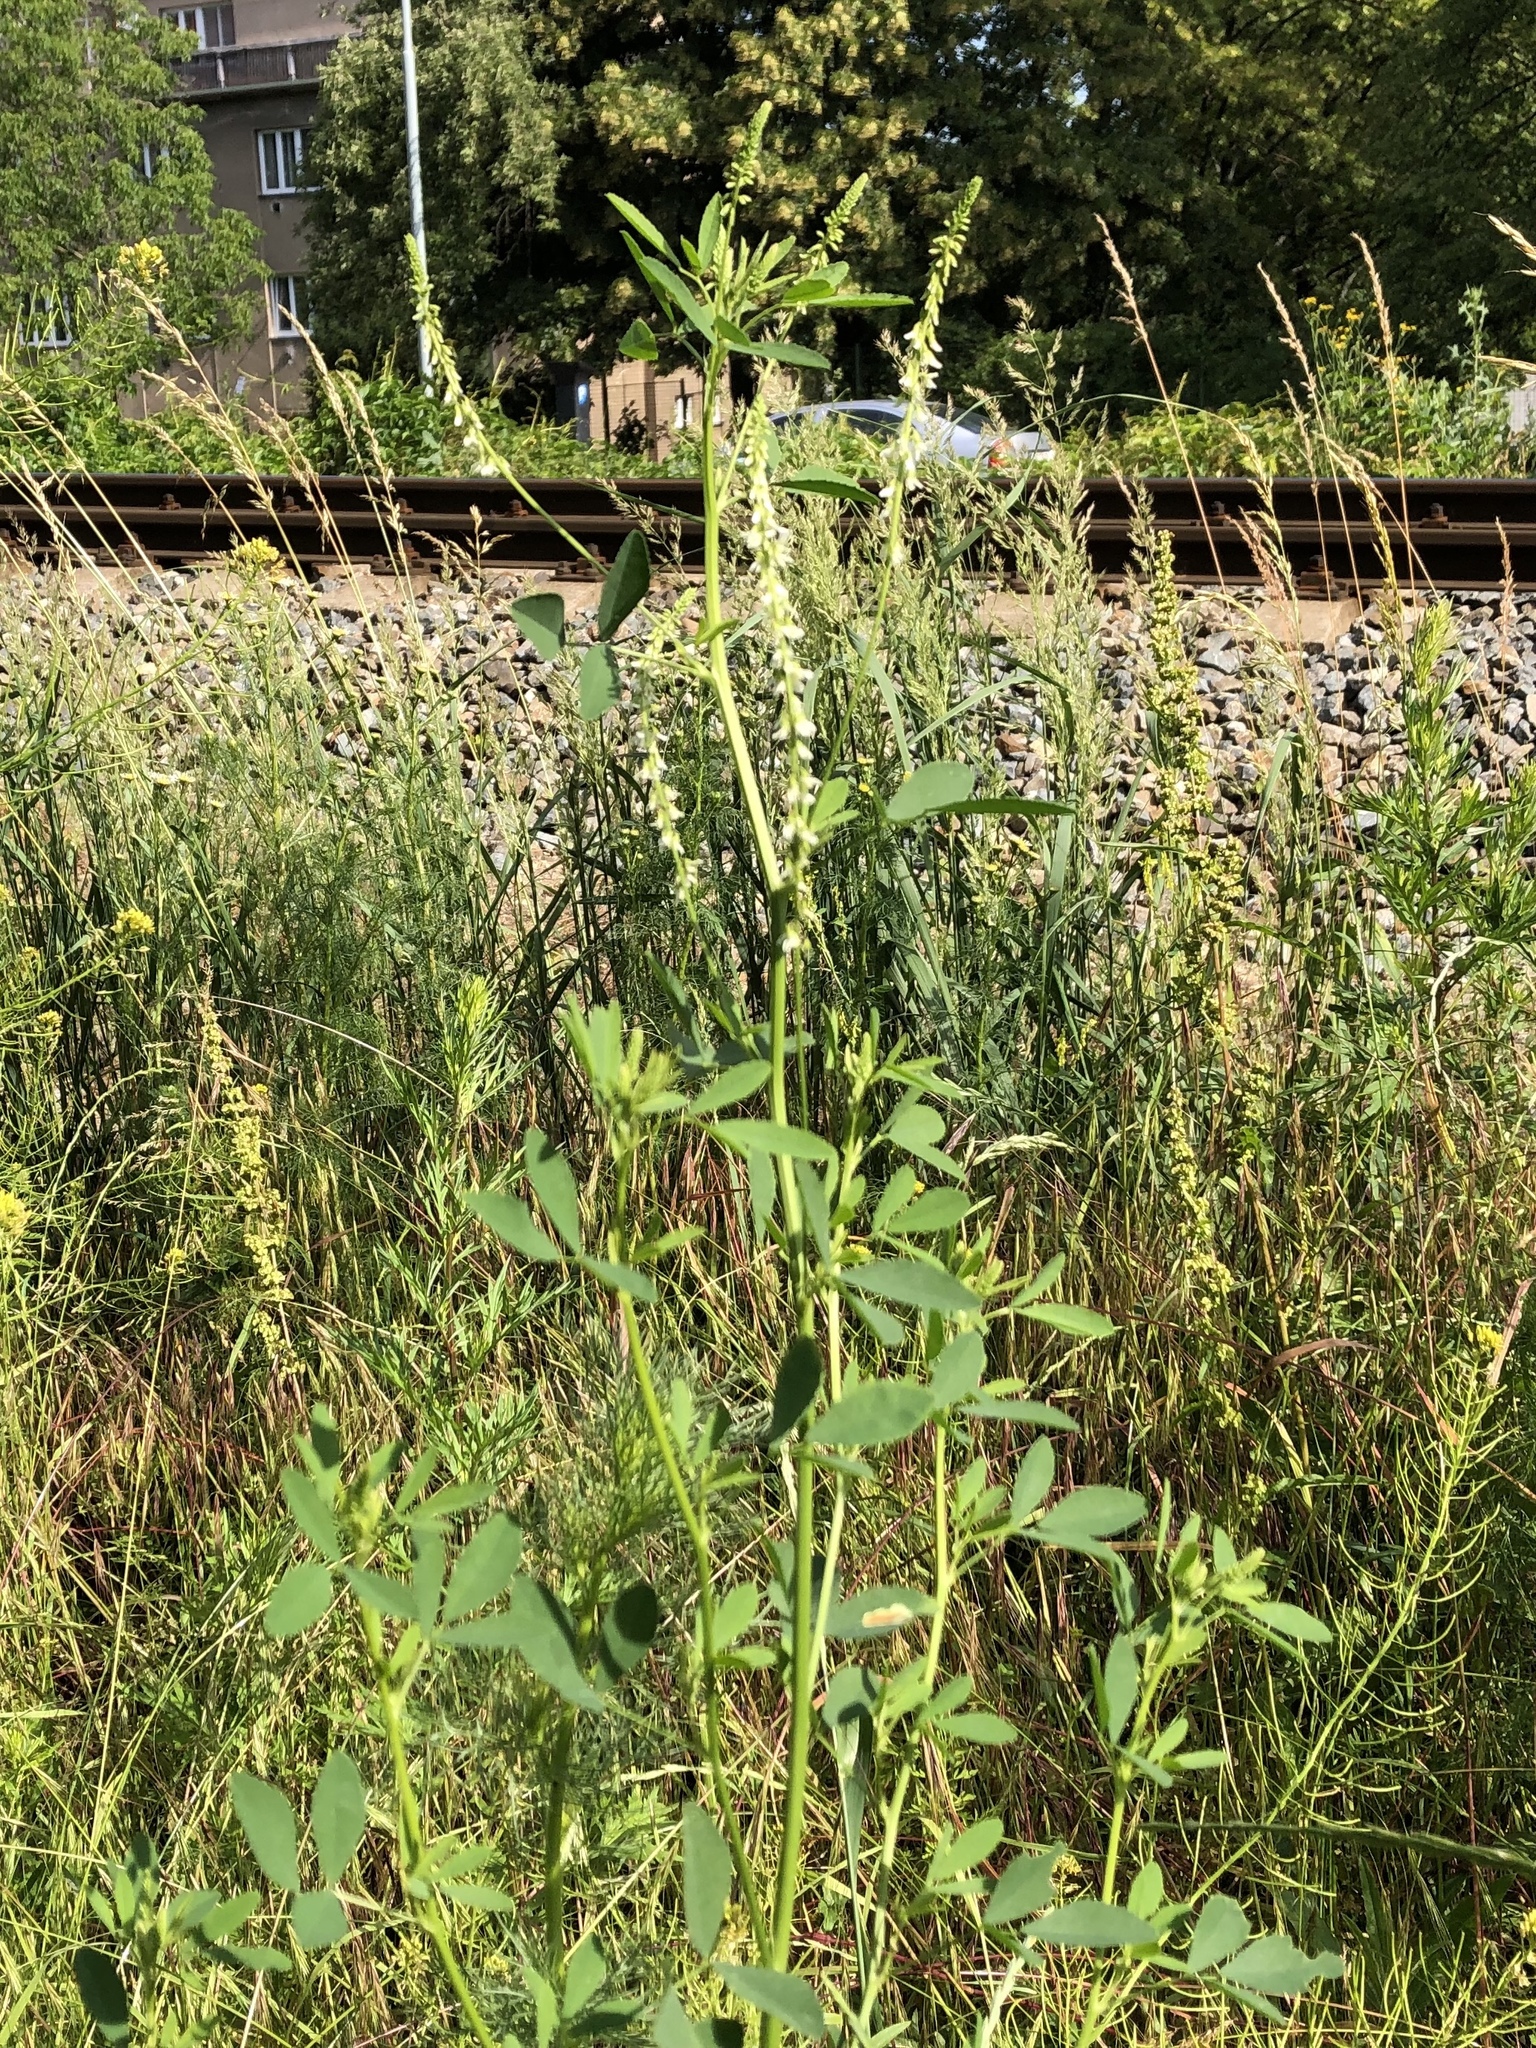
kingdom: Plantae
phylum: Tracheophyta
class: Magnoliopsida
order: Fabales
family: Fabaceae
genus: Melilotus
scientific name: Melilotus albus
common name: White melilot
